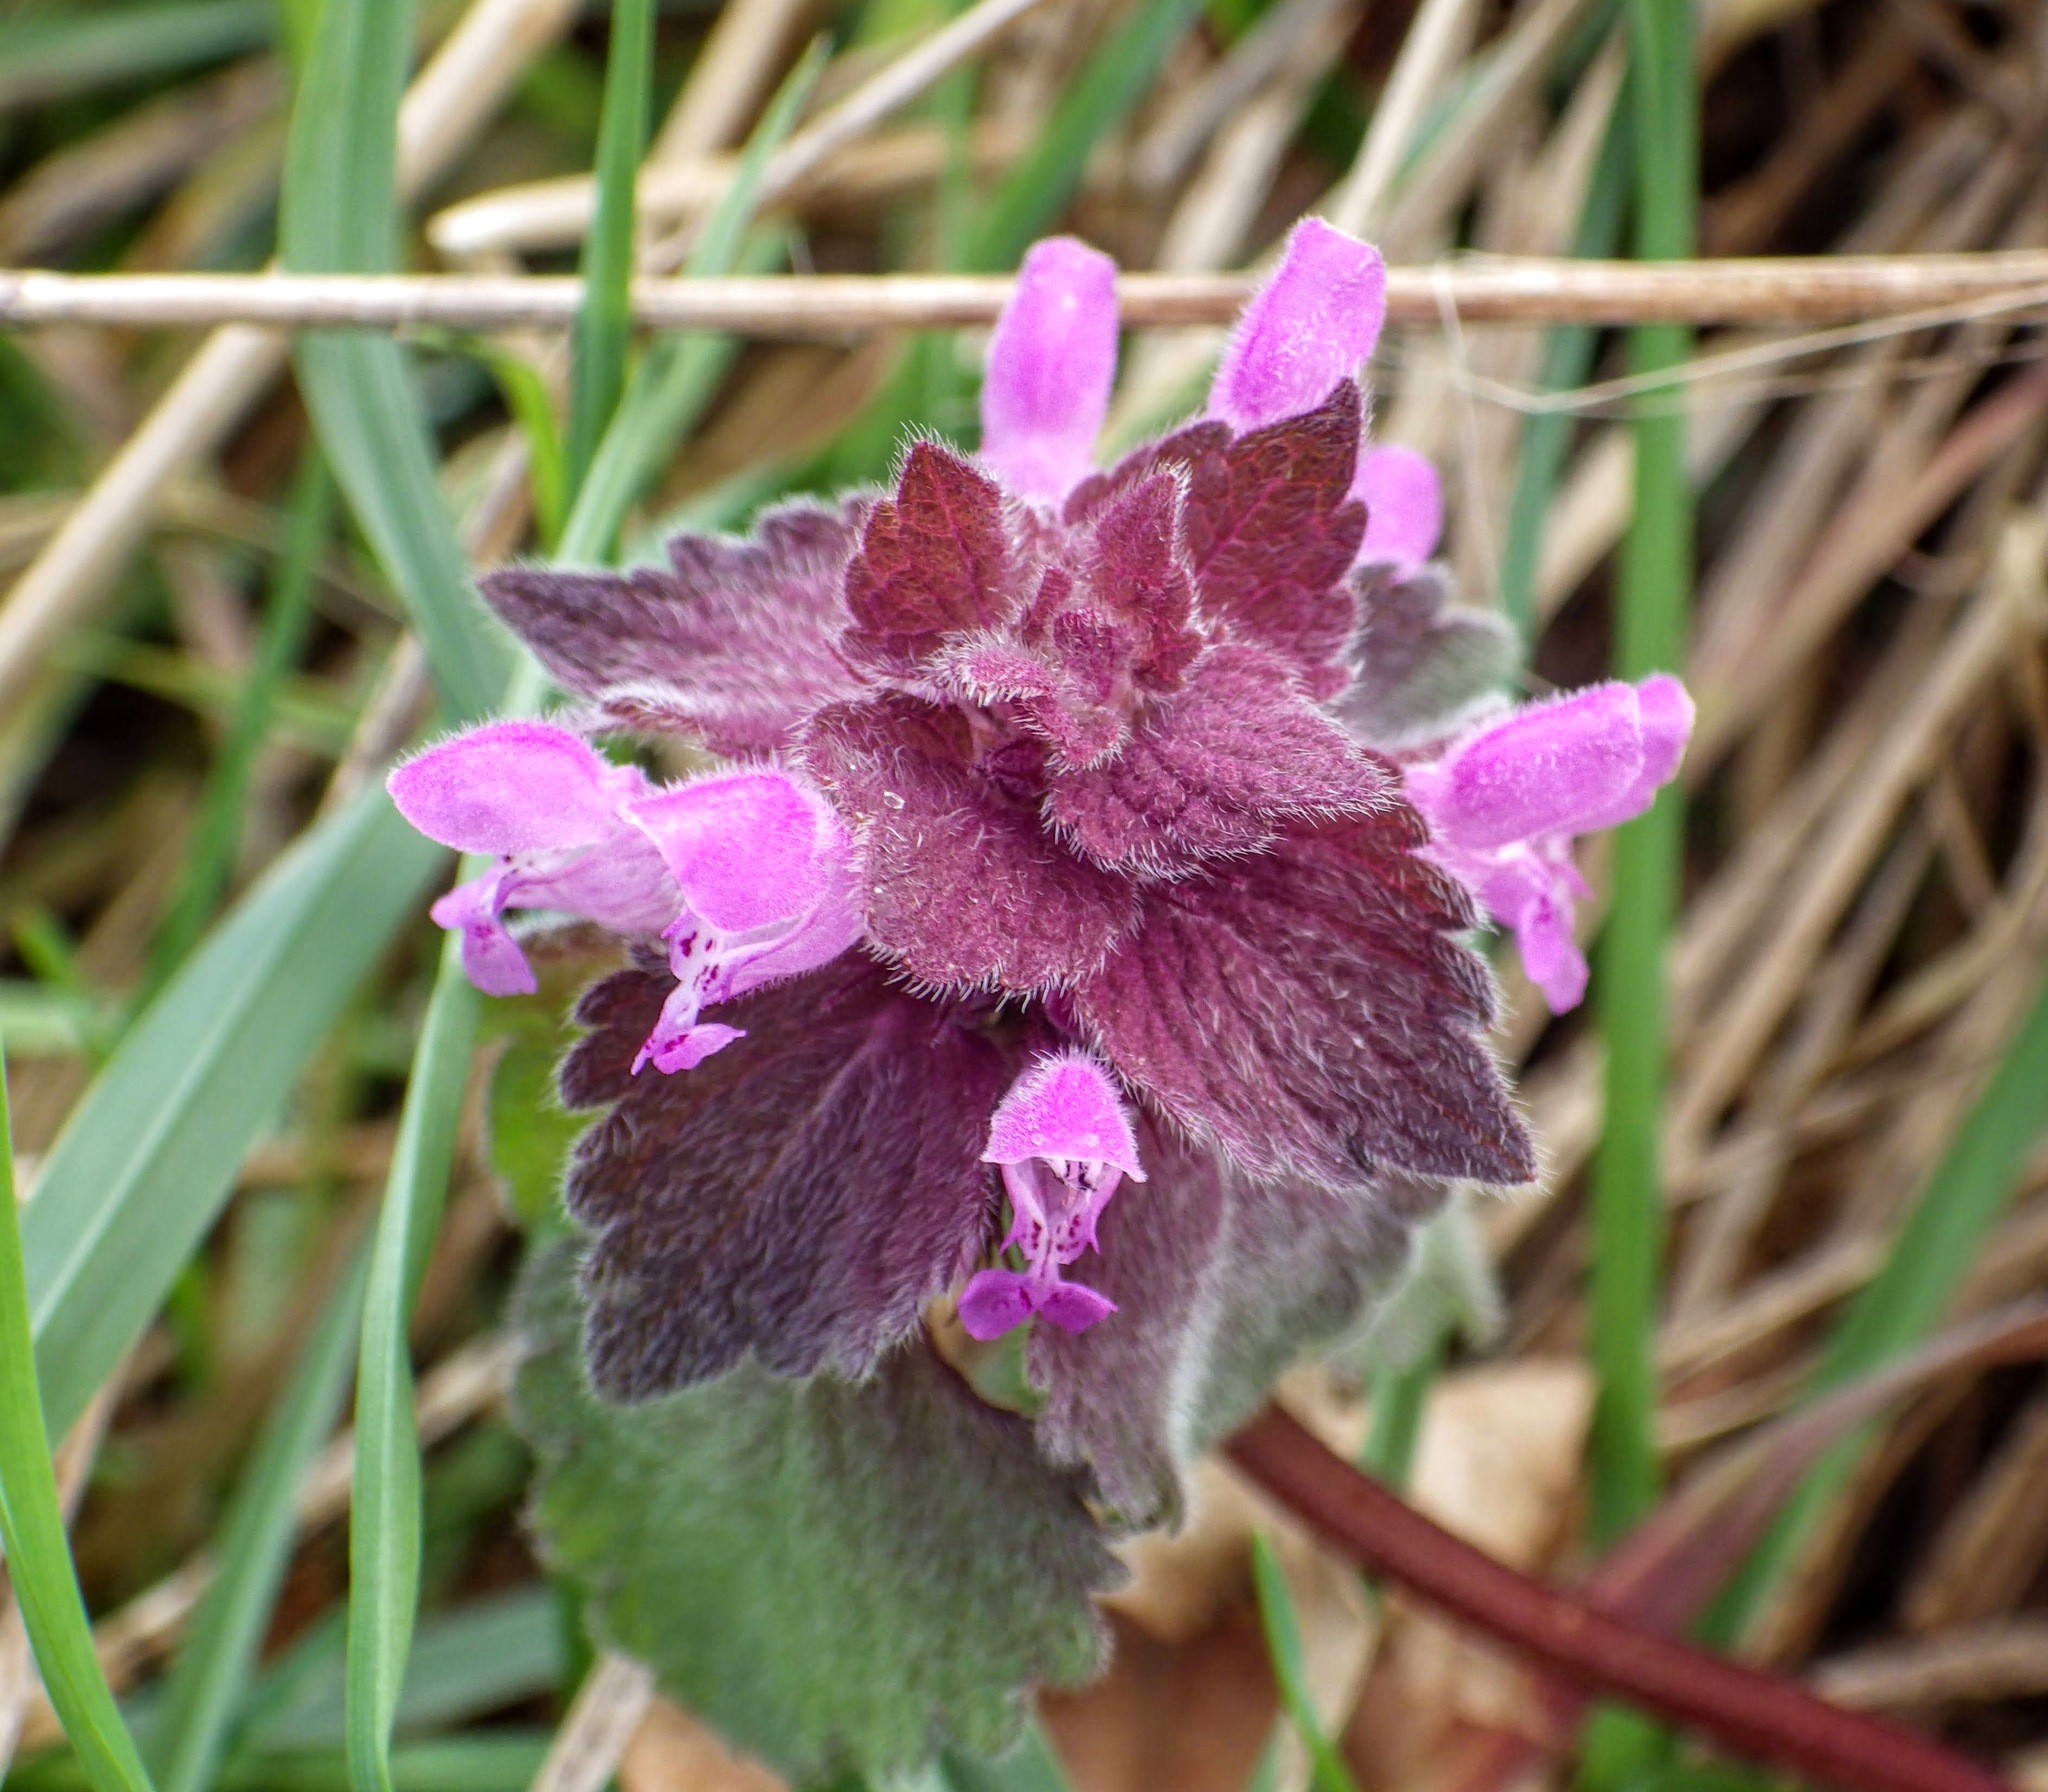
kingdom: Plantae
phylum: Tracheophyta
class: Magnoliopsida
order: Lamiales
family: Lamiaceae
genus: Lamium
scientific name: Lamium purpureum
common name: Red dead-nettle
